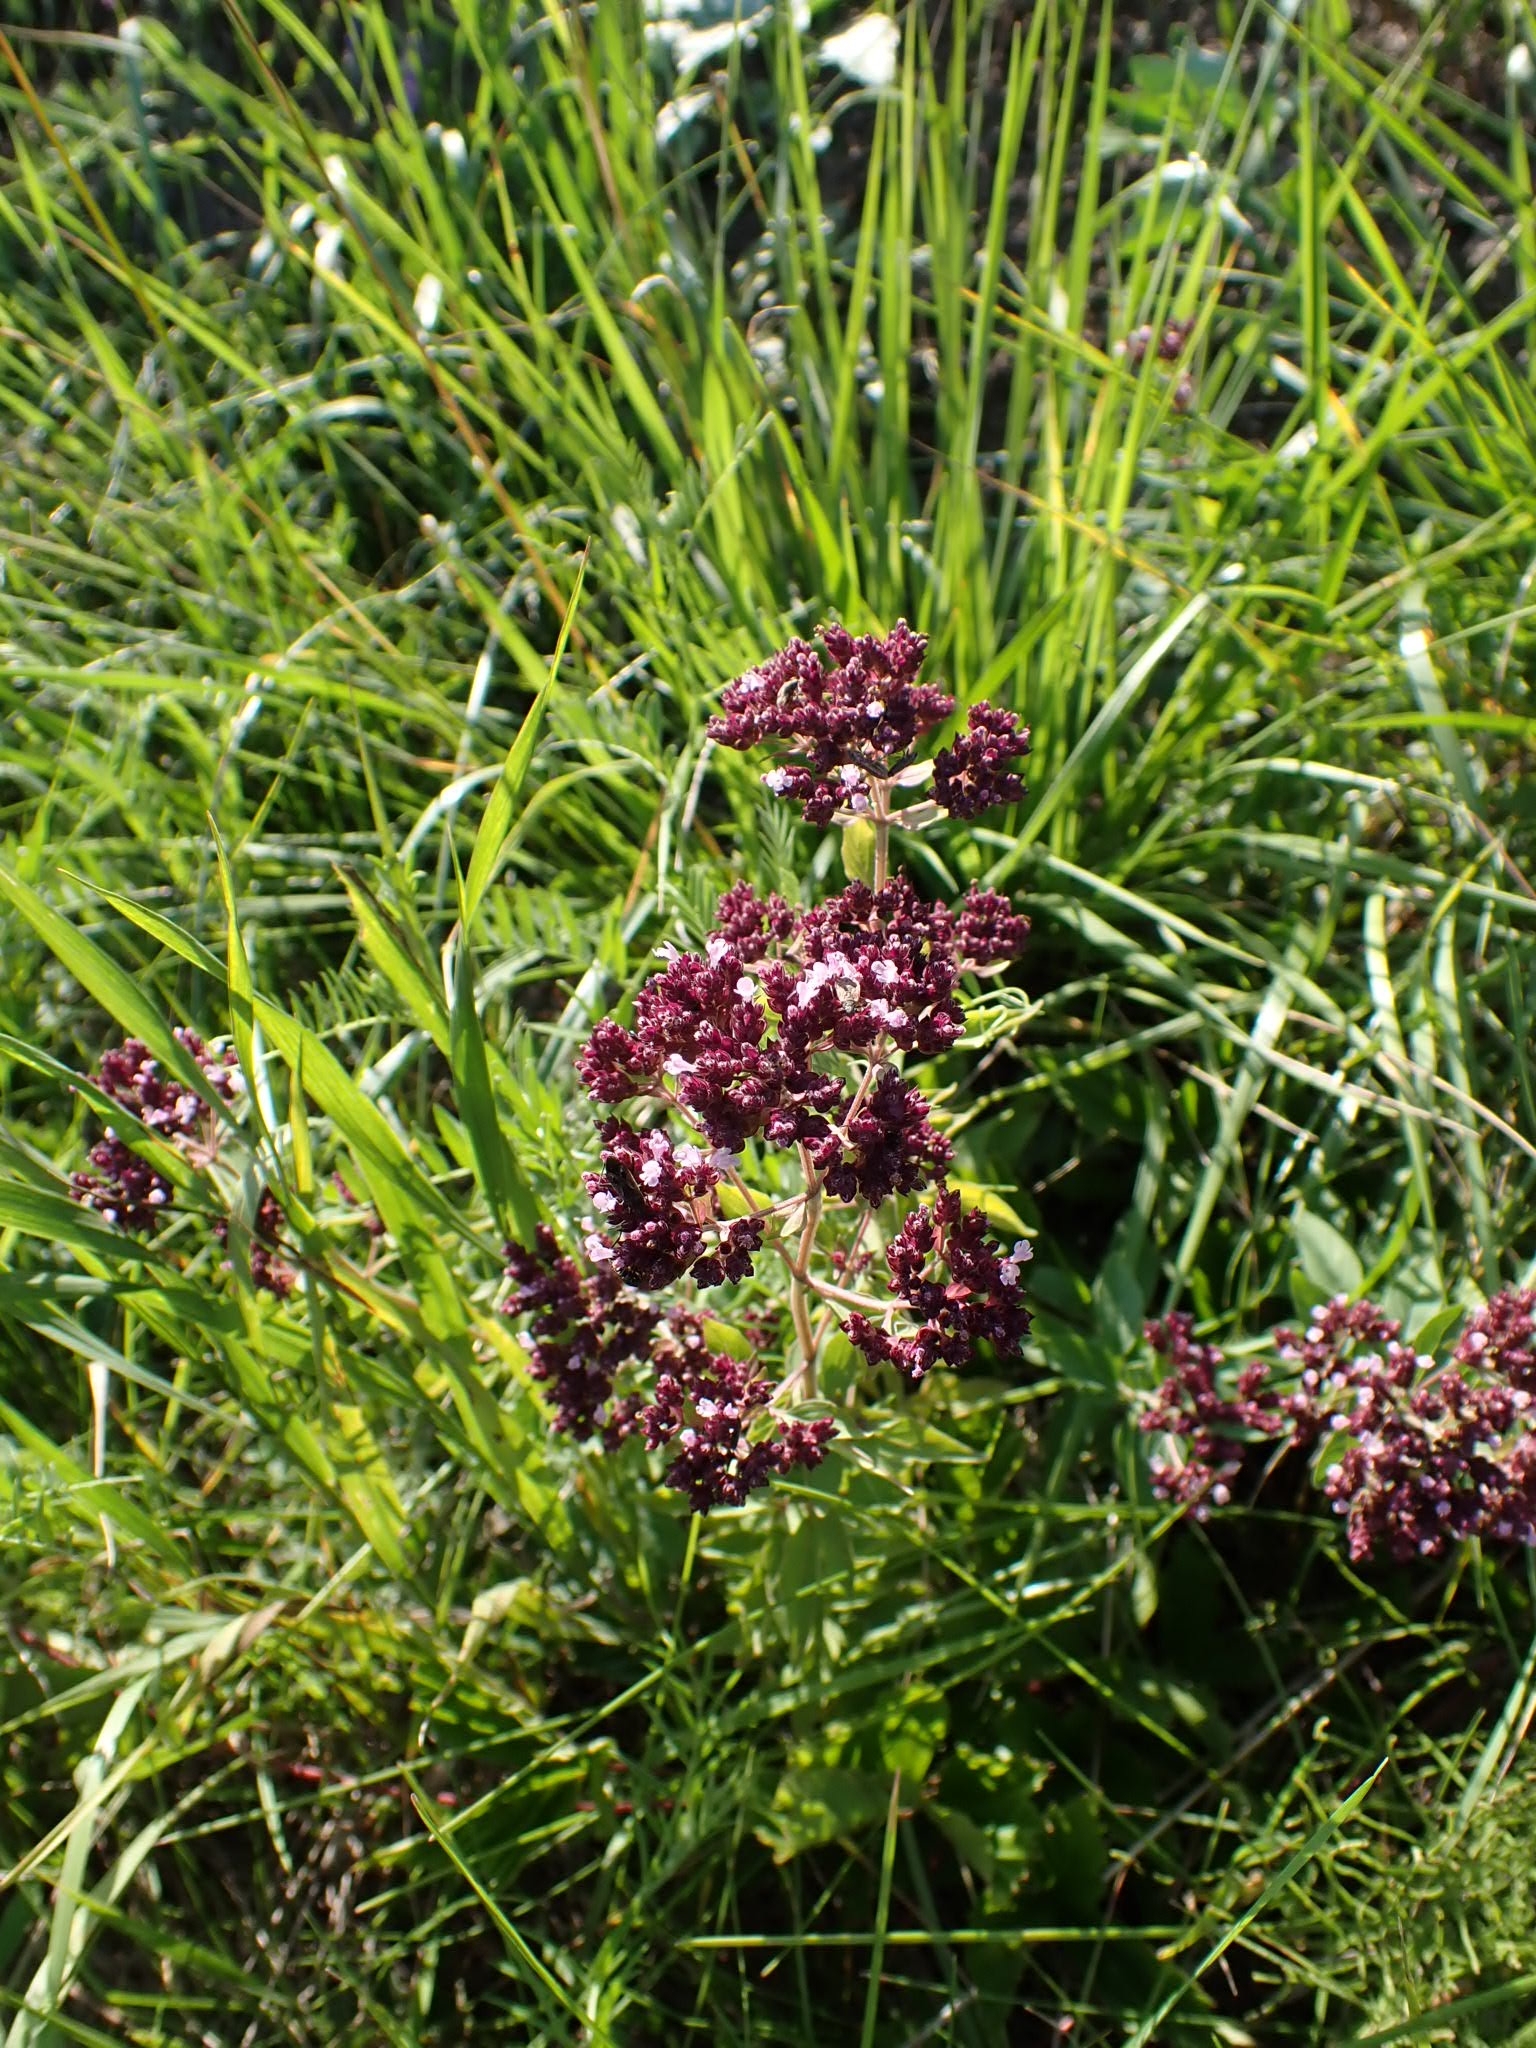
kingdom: Plantae
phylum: Tracheophyta
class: Magnoliopsida
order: Lamiales
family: Lamiaceae
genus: Origanum
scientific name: Origanum vulgare
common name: Wild marjoram
